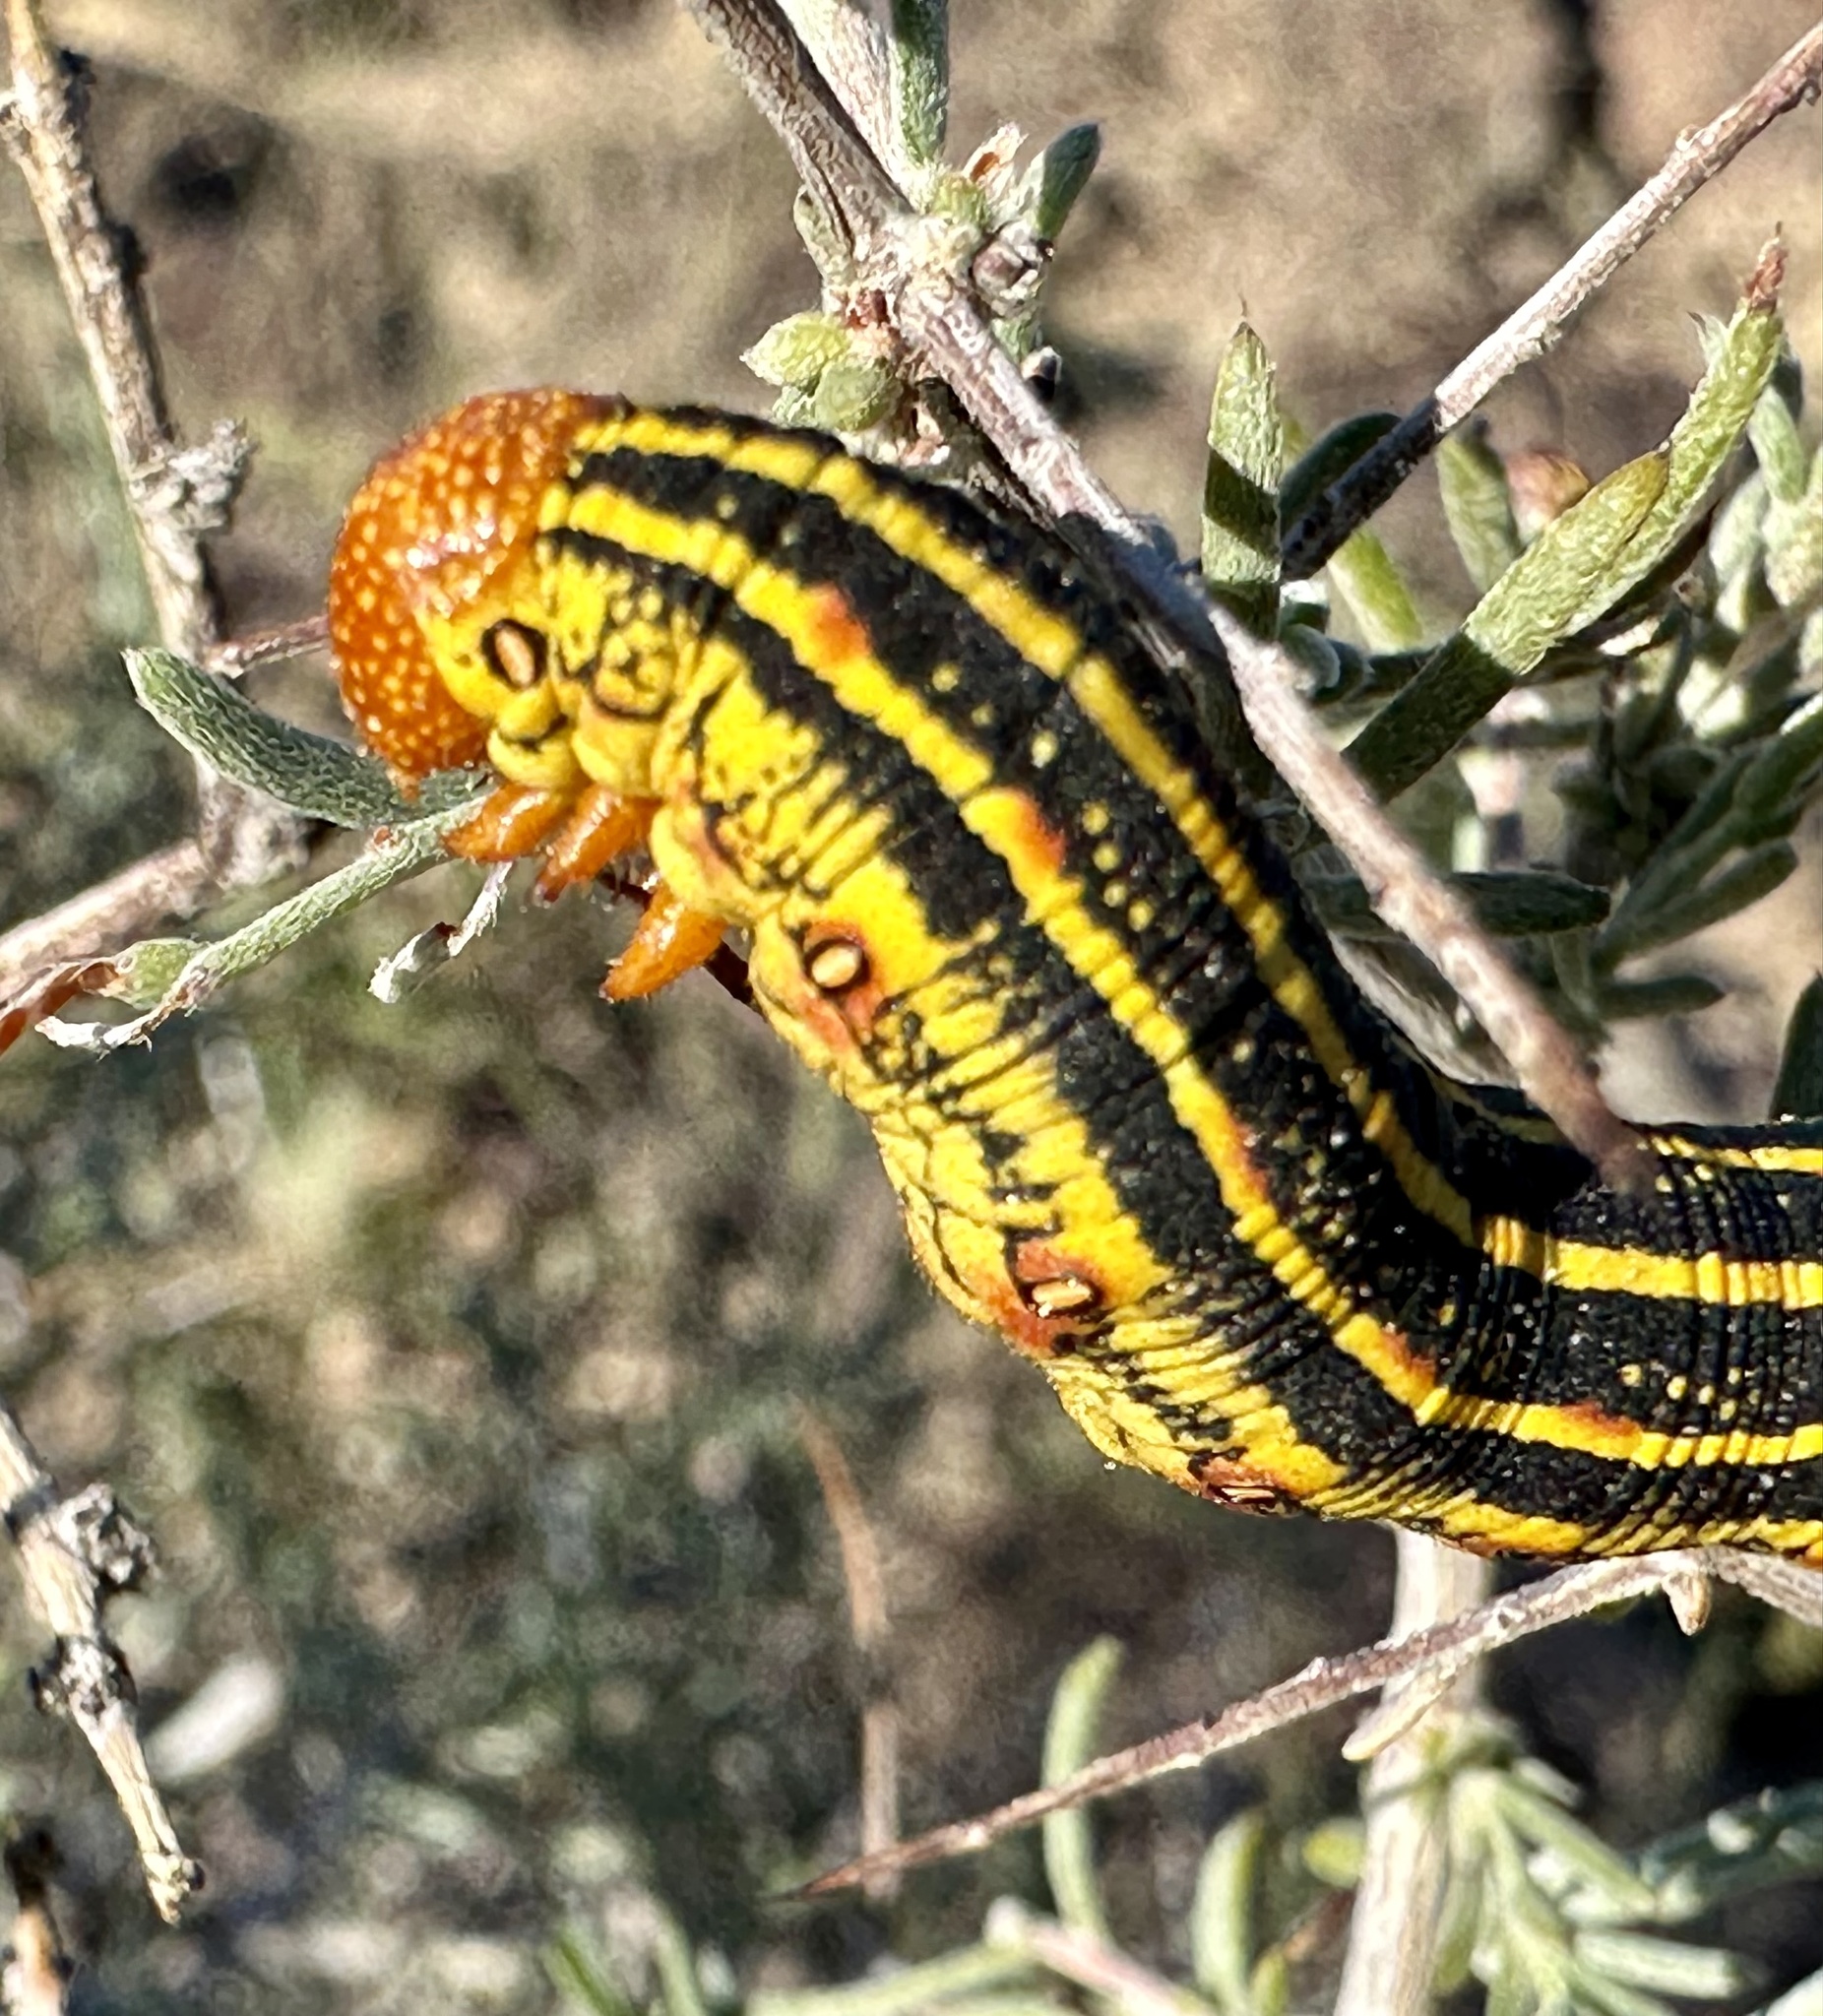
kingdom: Animalia
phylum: Arthropoda
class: Insecta
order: Lepidoptera
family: Sphingidae
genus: Hyles
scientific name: Hyles lineata
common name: White-lined sphinx
